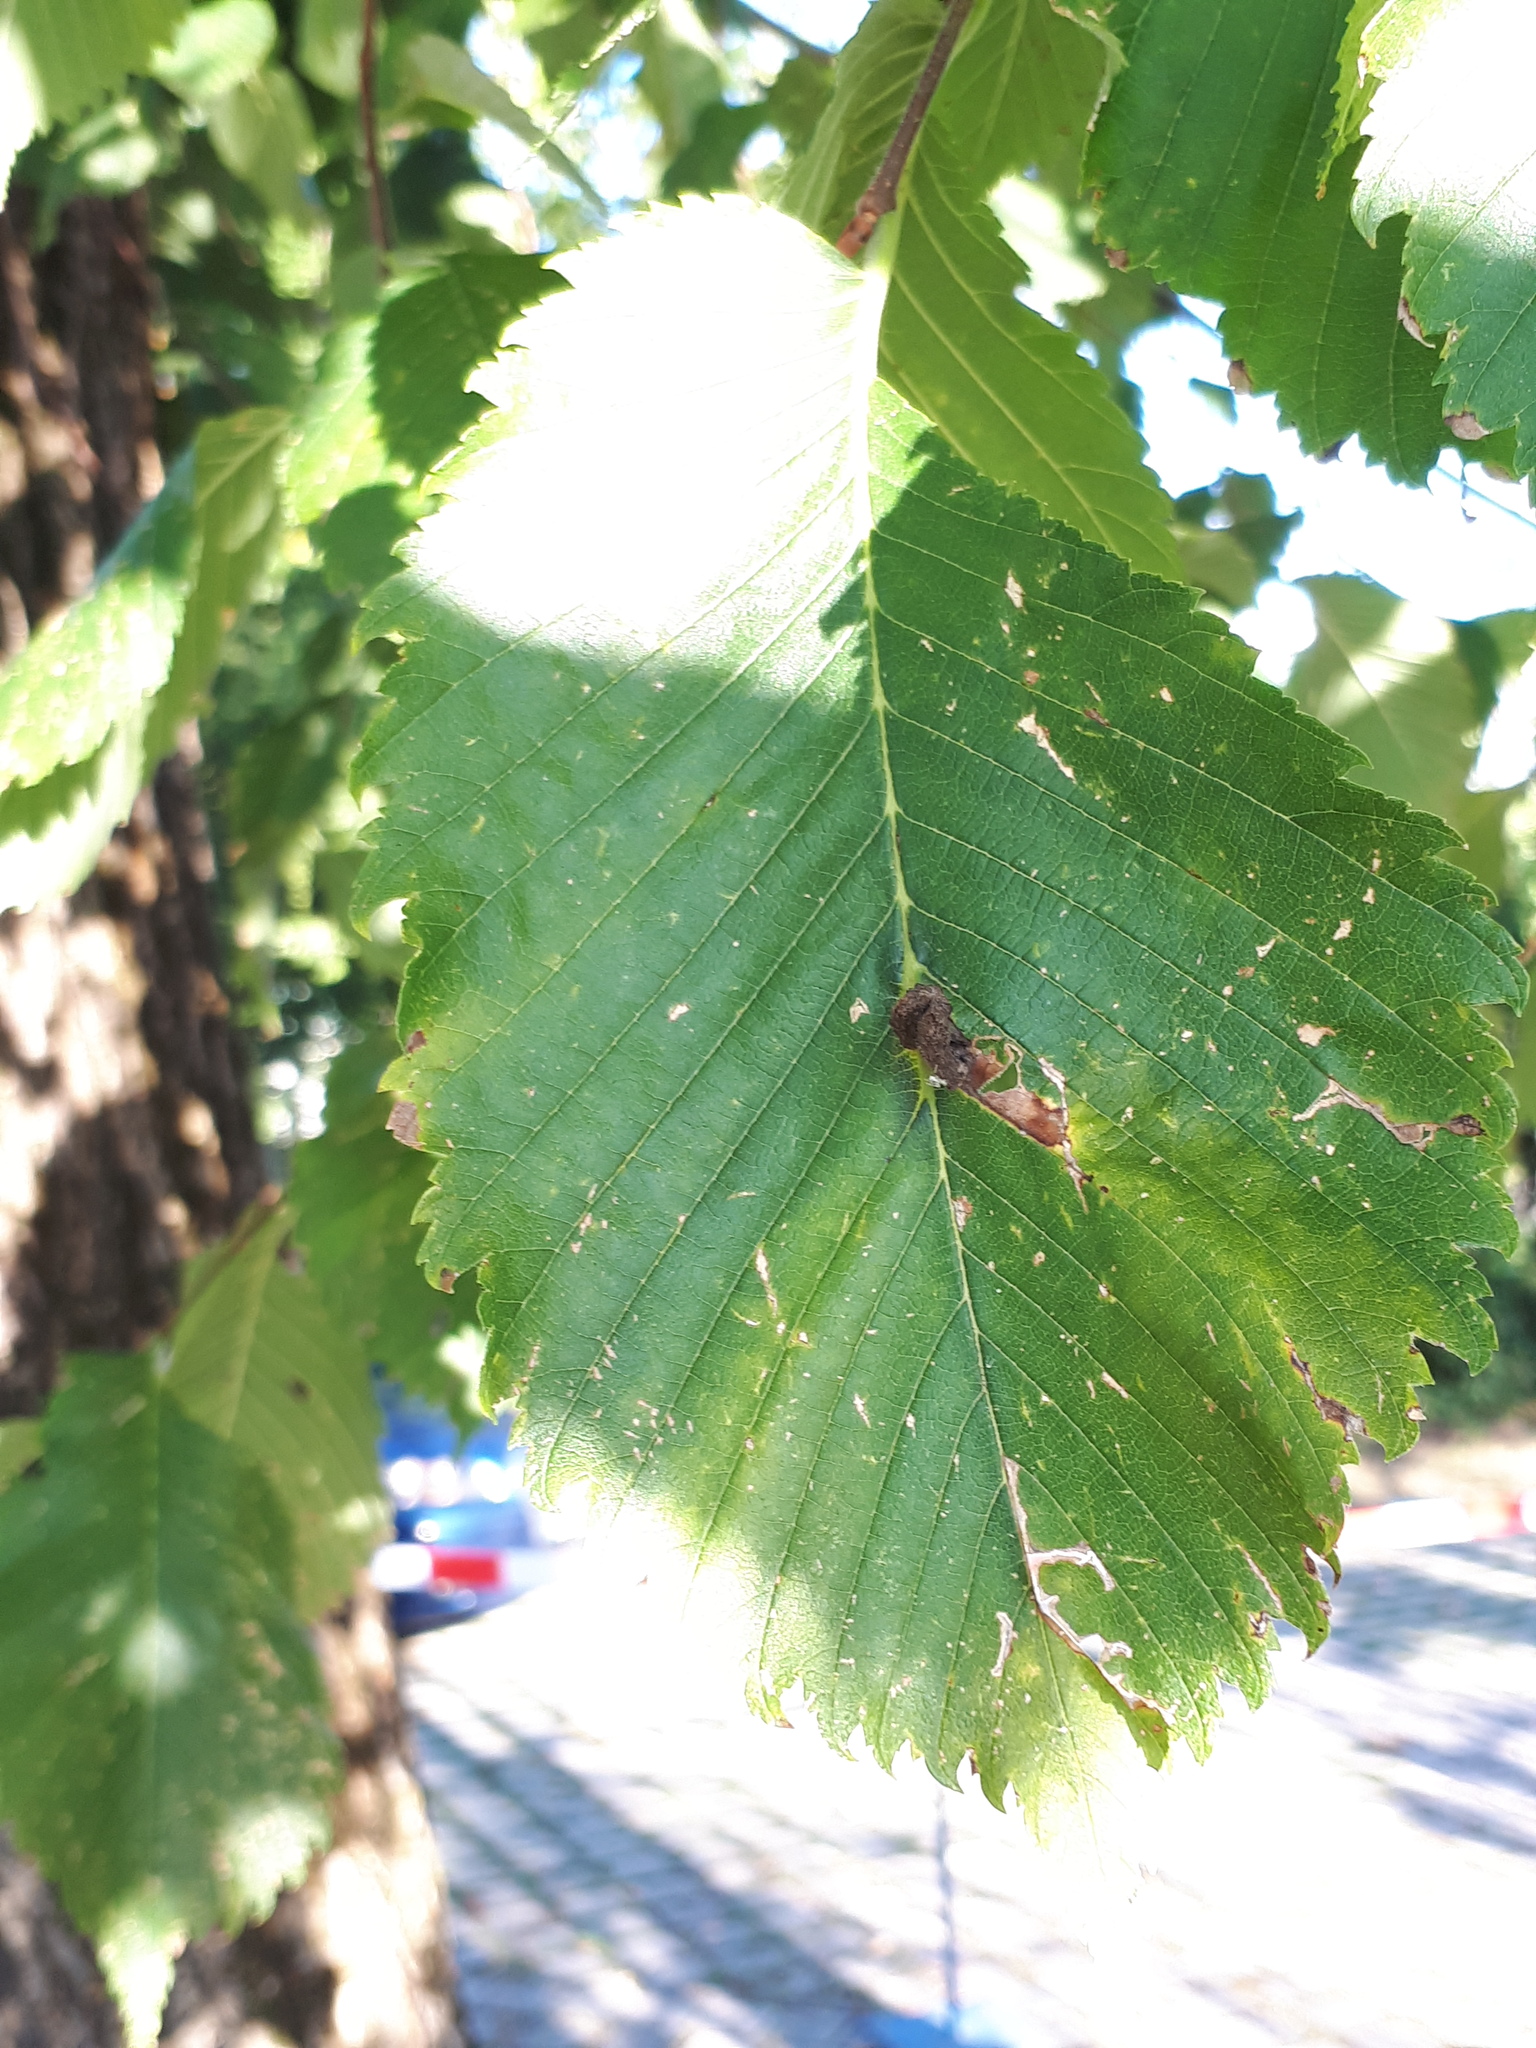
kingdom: Plantae
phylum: Tracheophyta
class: Magnoliopsida
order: Rosales
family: Ulmaceae
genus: Ulmus
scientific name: Ulmus glabra
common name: Wych elm
